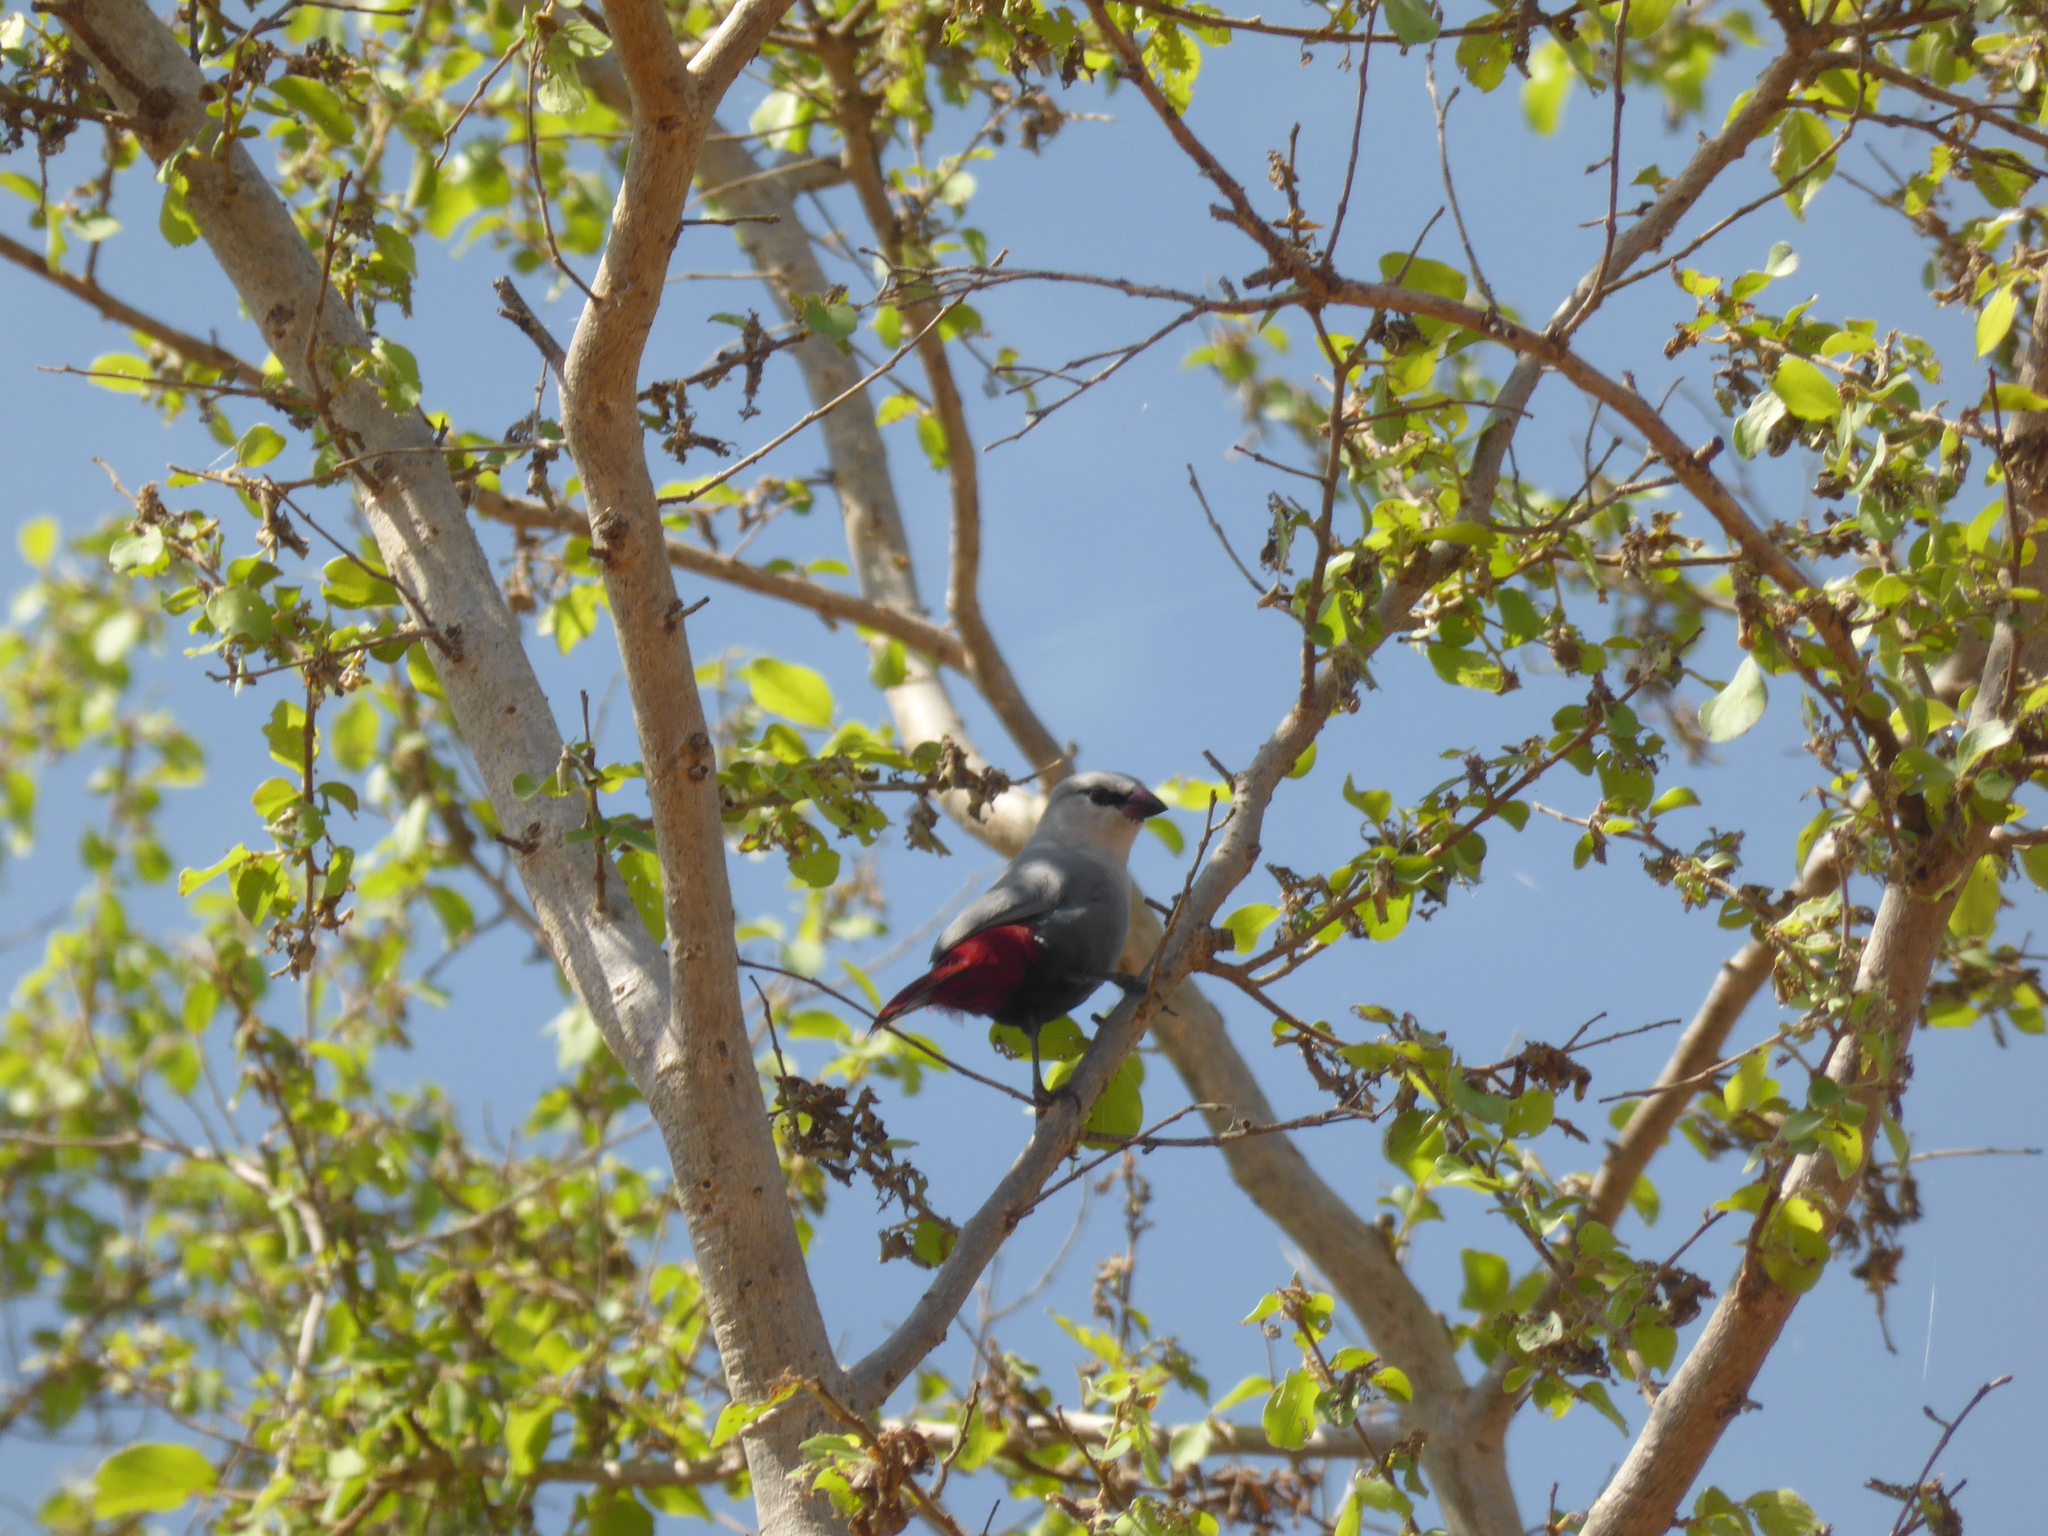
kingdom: Animalia
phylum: Chordata
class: Aves
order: Passeriformes
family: Estrildidae
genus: Estrilda
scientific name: Estrilda caerulescens
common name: Lavender waxbill
